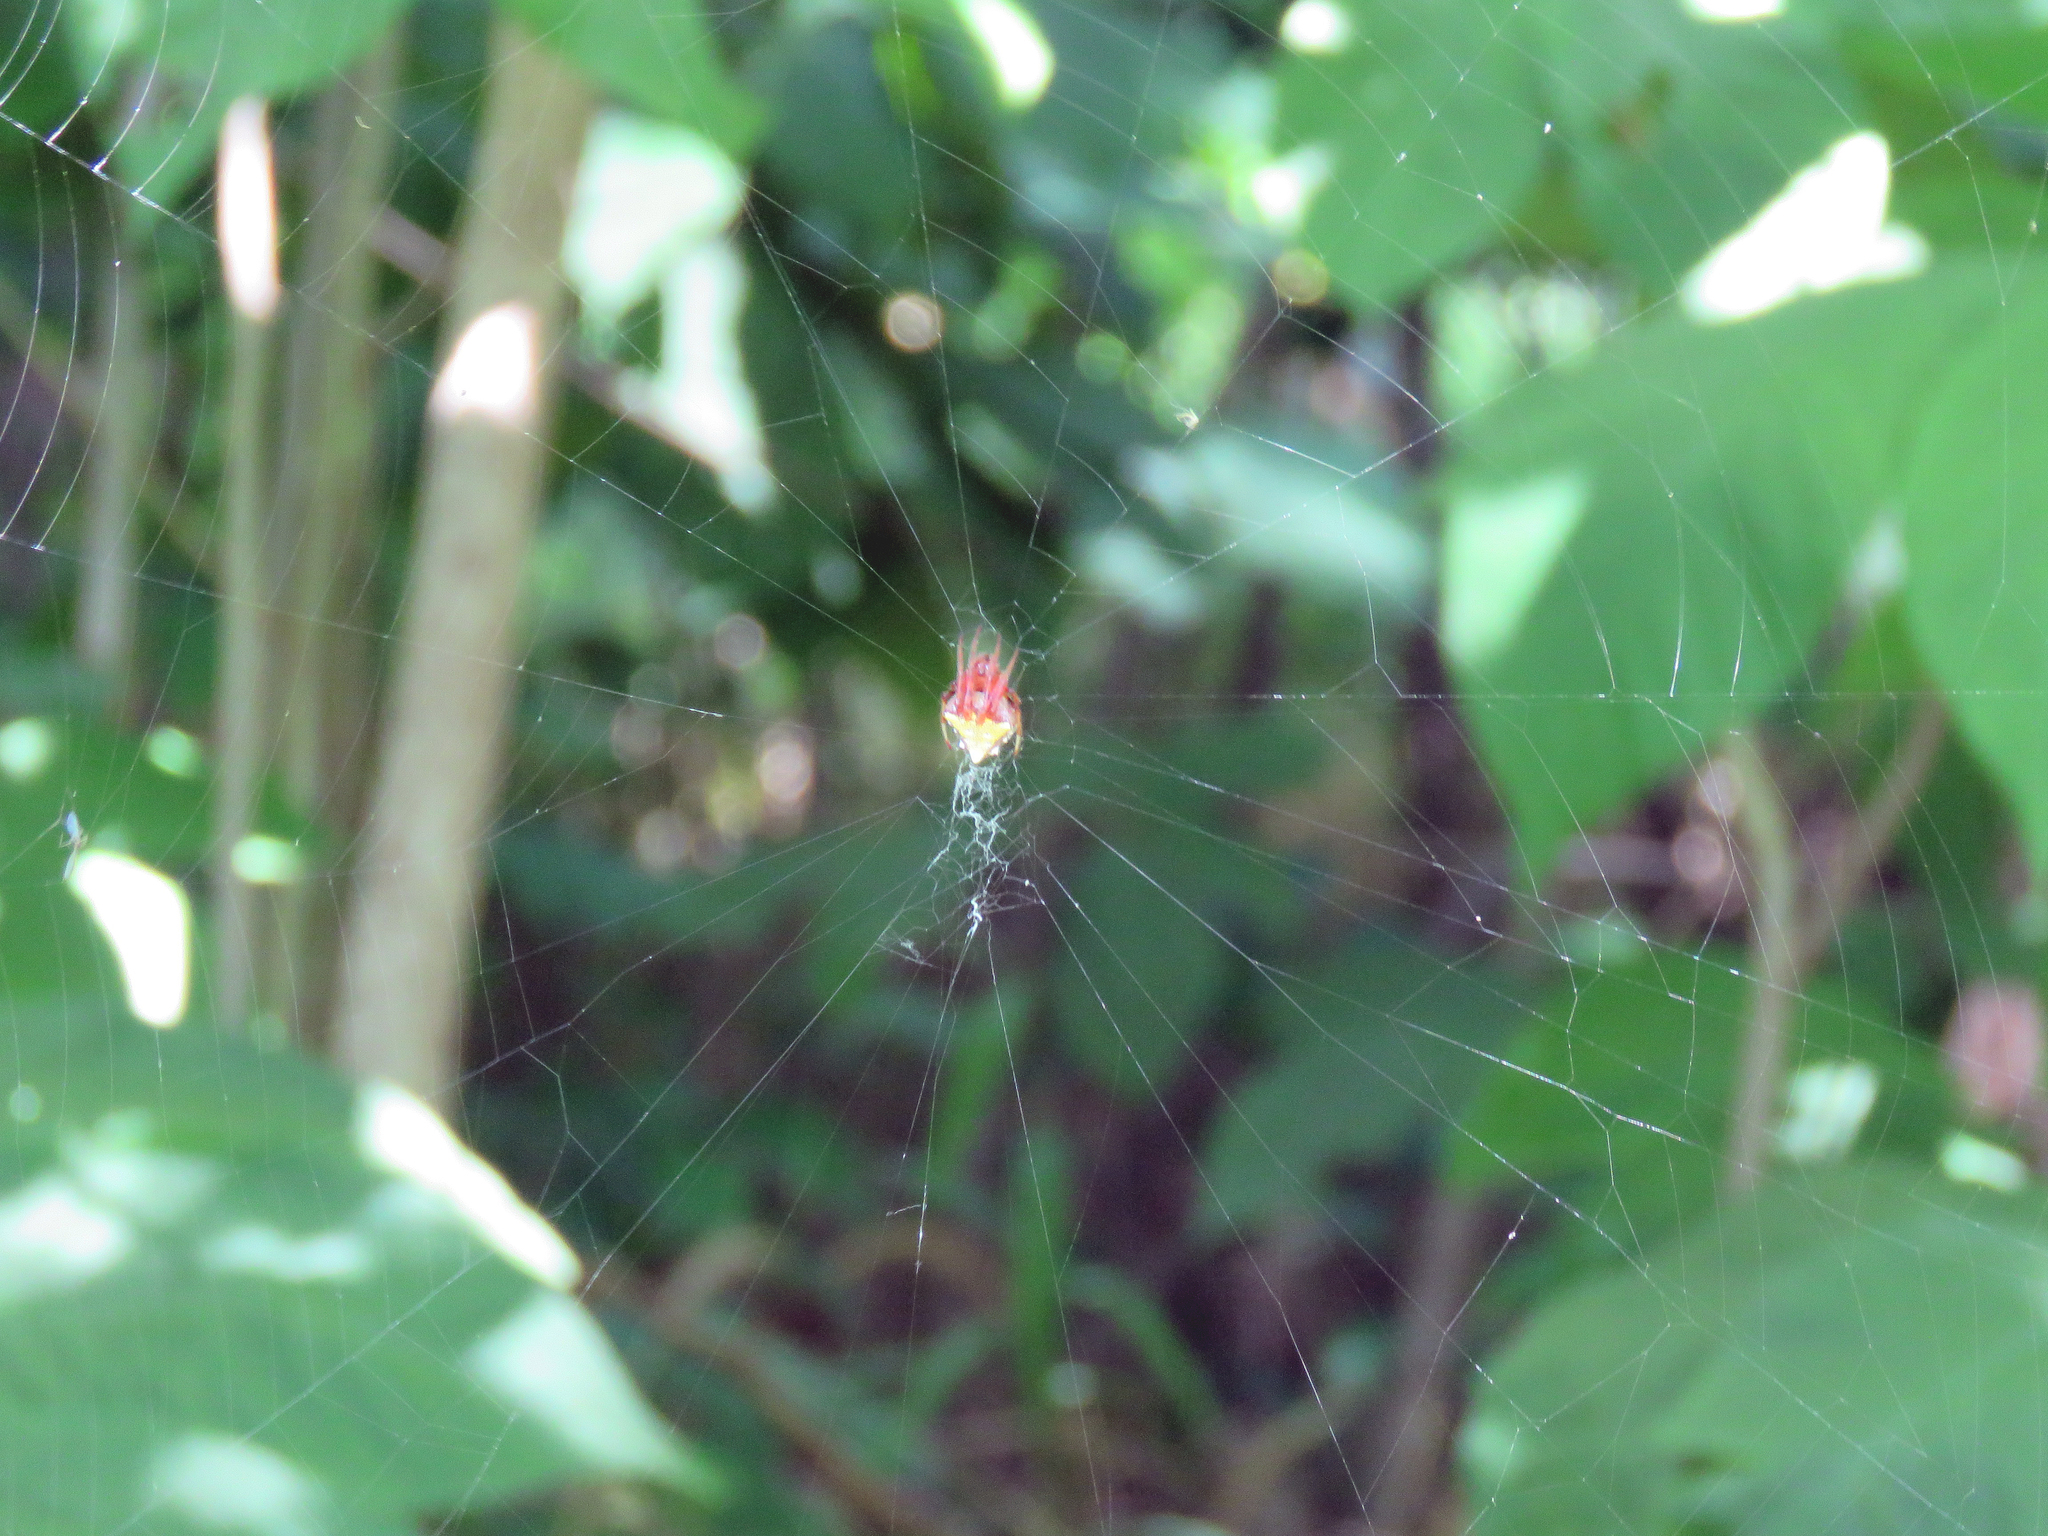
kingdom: Animalia
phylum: Arthropoda
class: Arachnida
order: Araneae
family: Araneidae
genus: Verrucosa
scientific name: Verrucosa arenata
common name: Orb weavers
